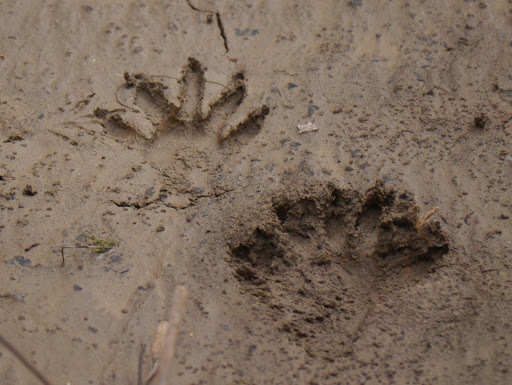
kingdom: Animalia
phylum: Chordata
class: Mammalia
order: Carnivora
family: Procyonidae
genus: Procyon
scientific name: Procyon lotor
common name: Raccoon
